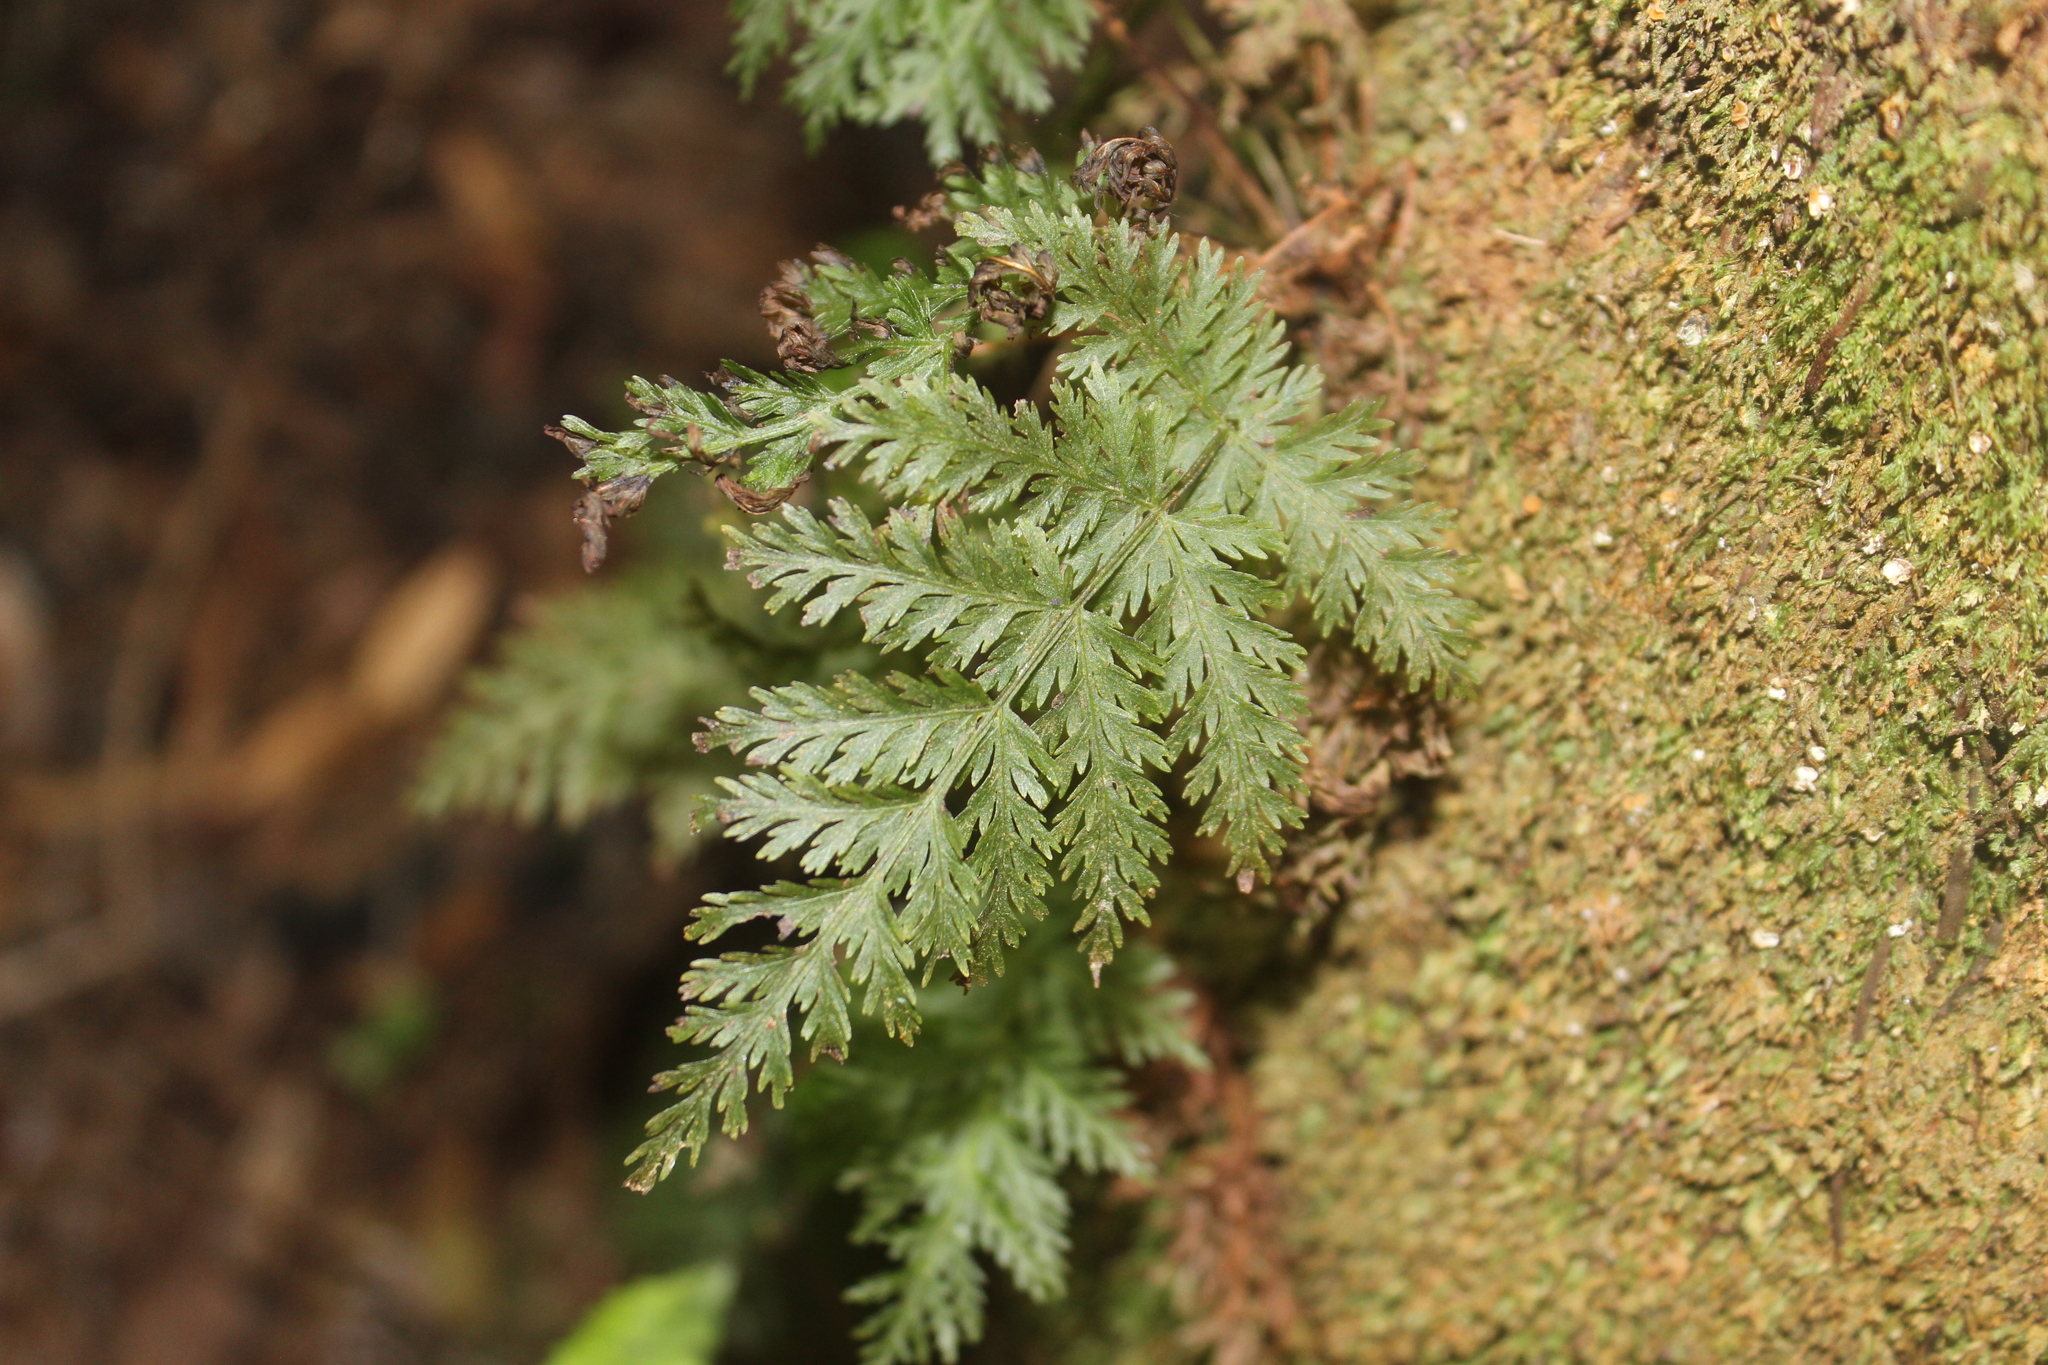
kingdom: Plantae
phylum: Tracheophyta
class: Polypodiopsida
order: Osmundales
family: Osmundaceae
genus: Leptopteris
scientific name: Leptopteris hymenophylloides
